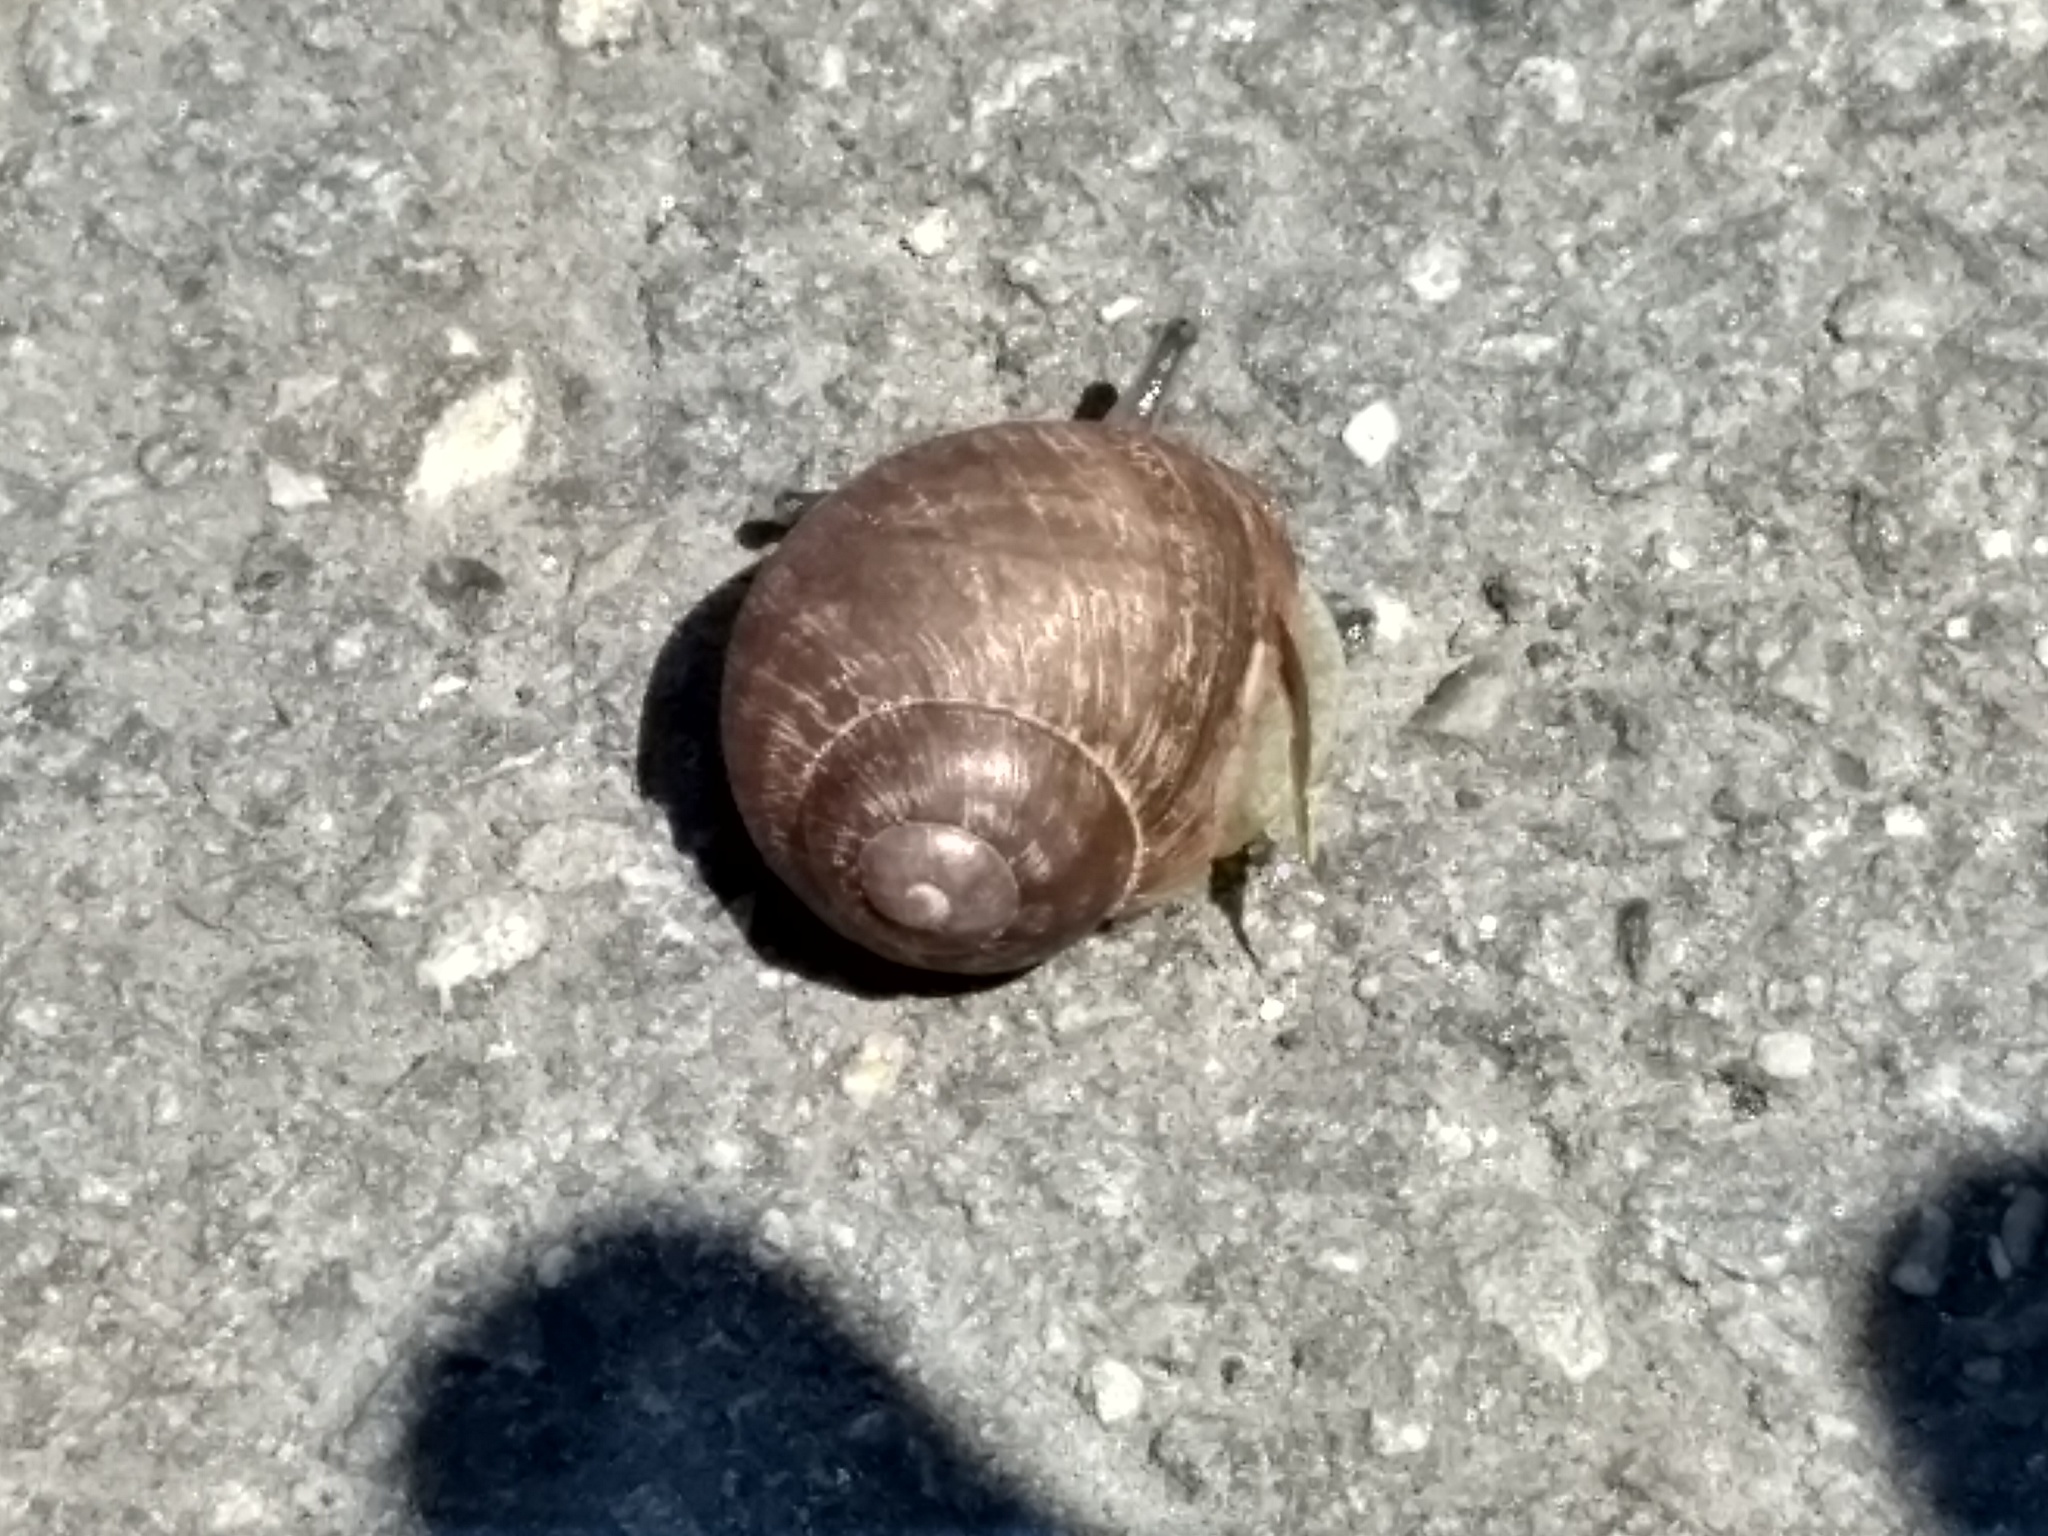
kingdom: Animalia
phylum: Mollusca
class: Gastropoda
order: Stylommatophora
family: Helicidae
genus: Cornu
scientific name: Cornu aspersum
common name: Brown garden snail
